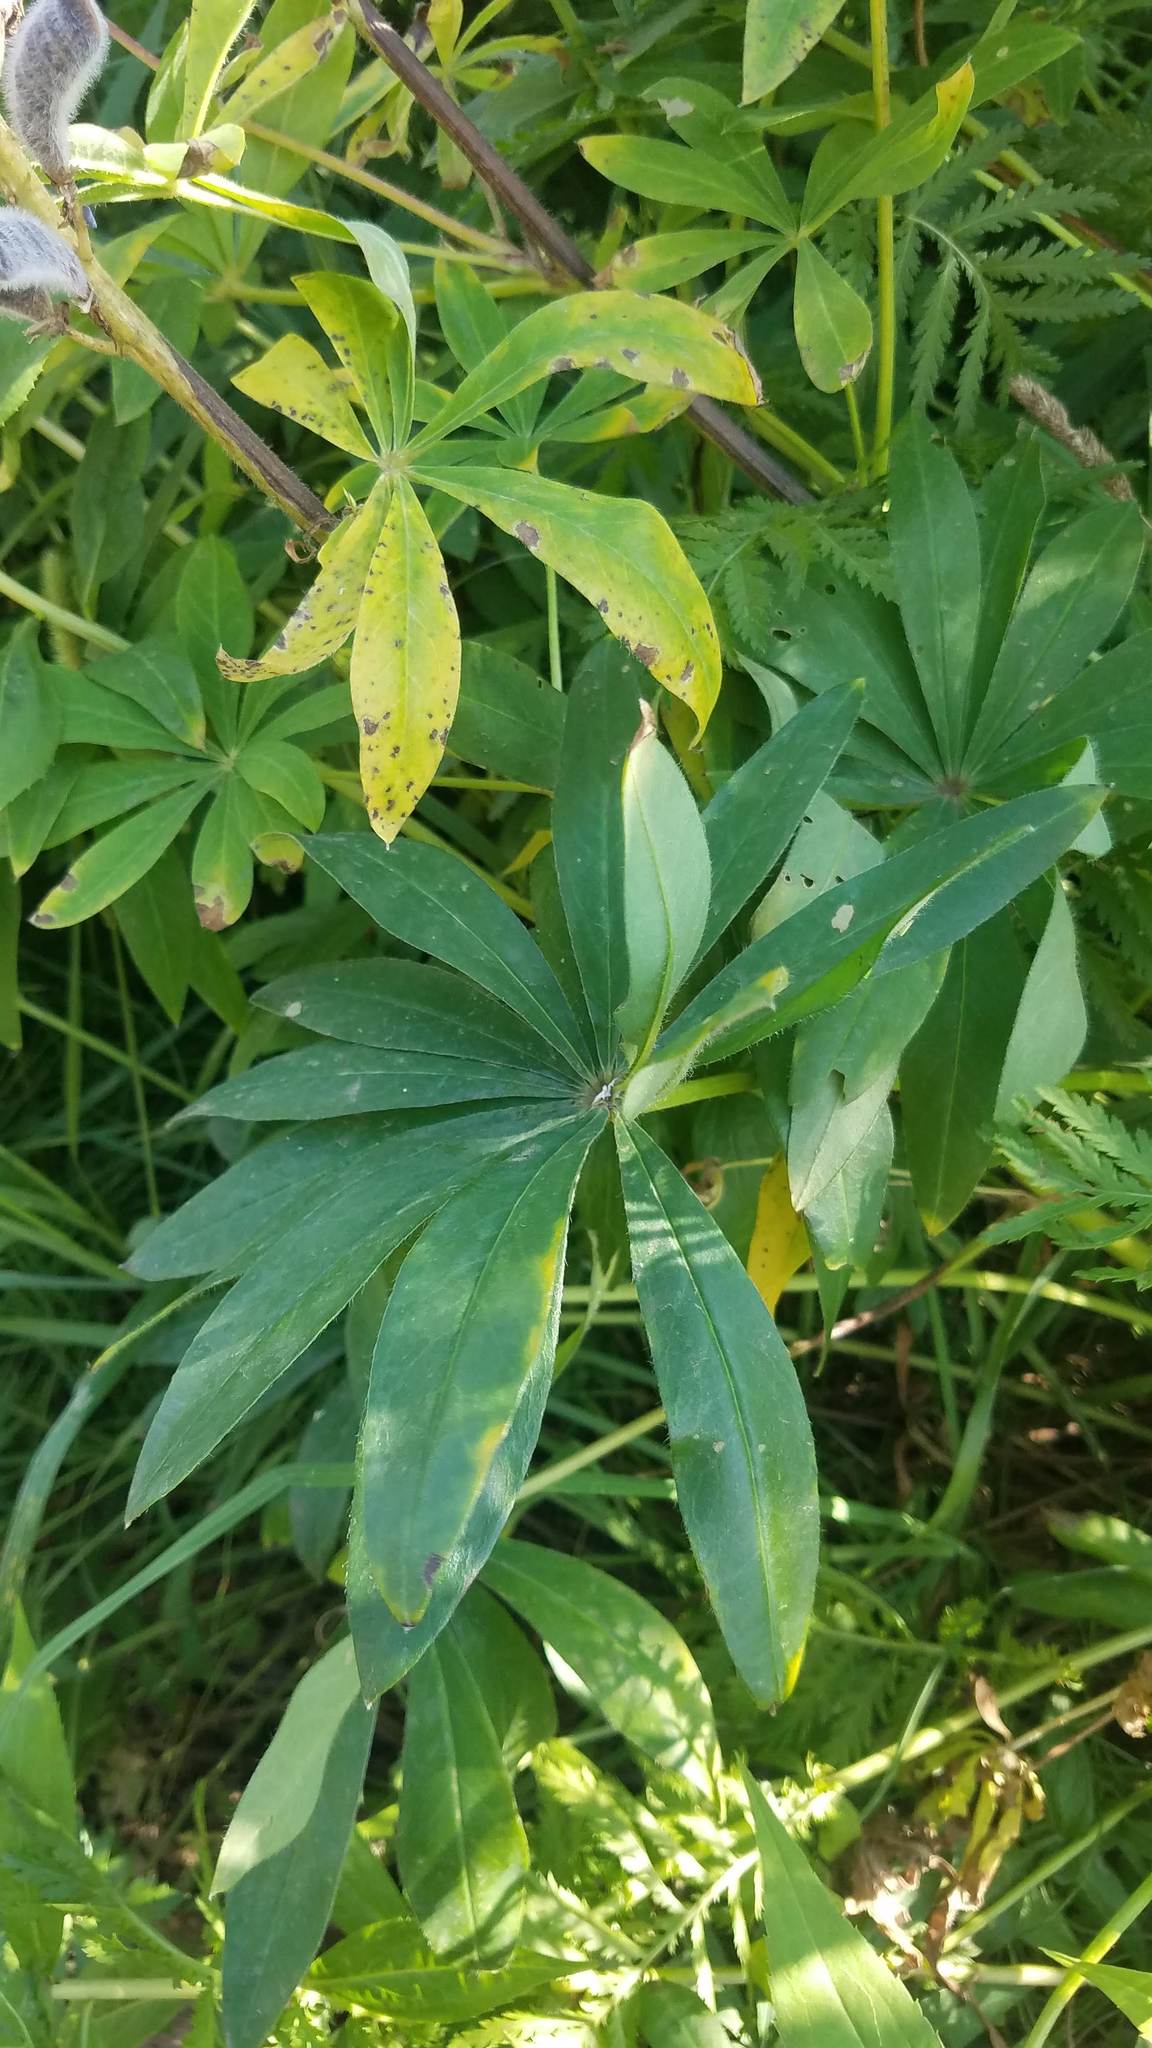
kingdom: Plantae
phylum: Tracheophyta
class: Magnoliopsida
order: Fabales
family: Fabaceae
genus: Lupinus
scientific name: Lupinus polyphyllus
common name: Garden lupin
